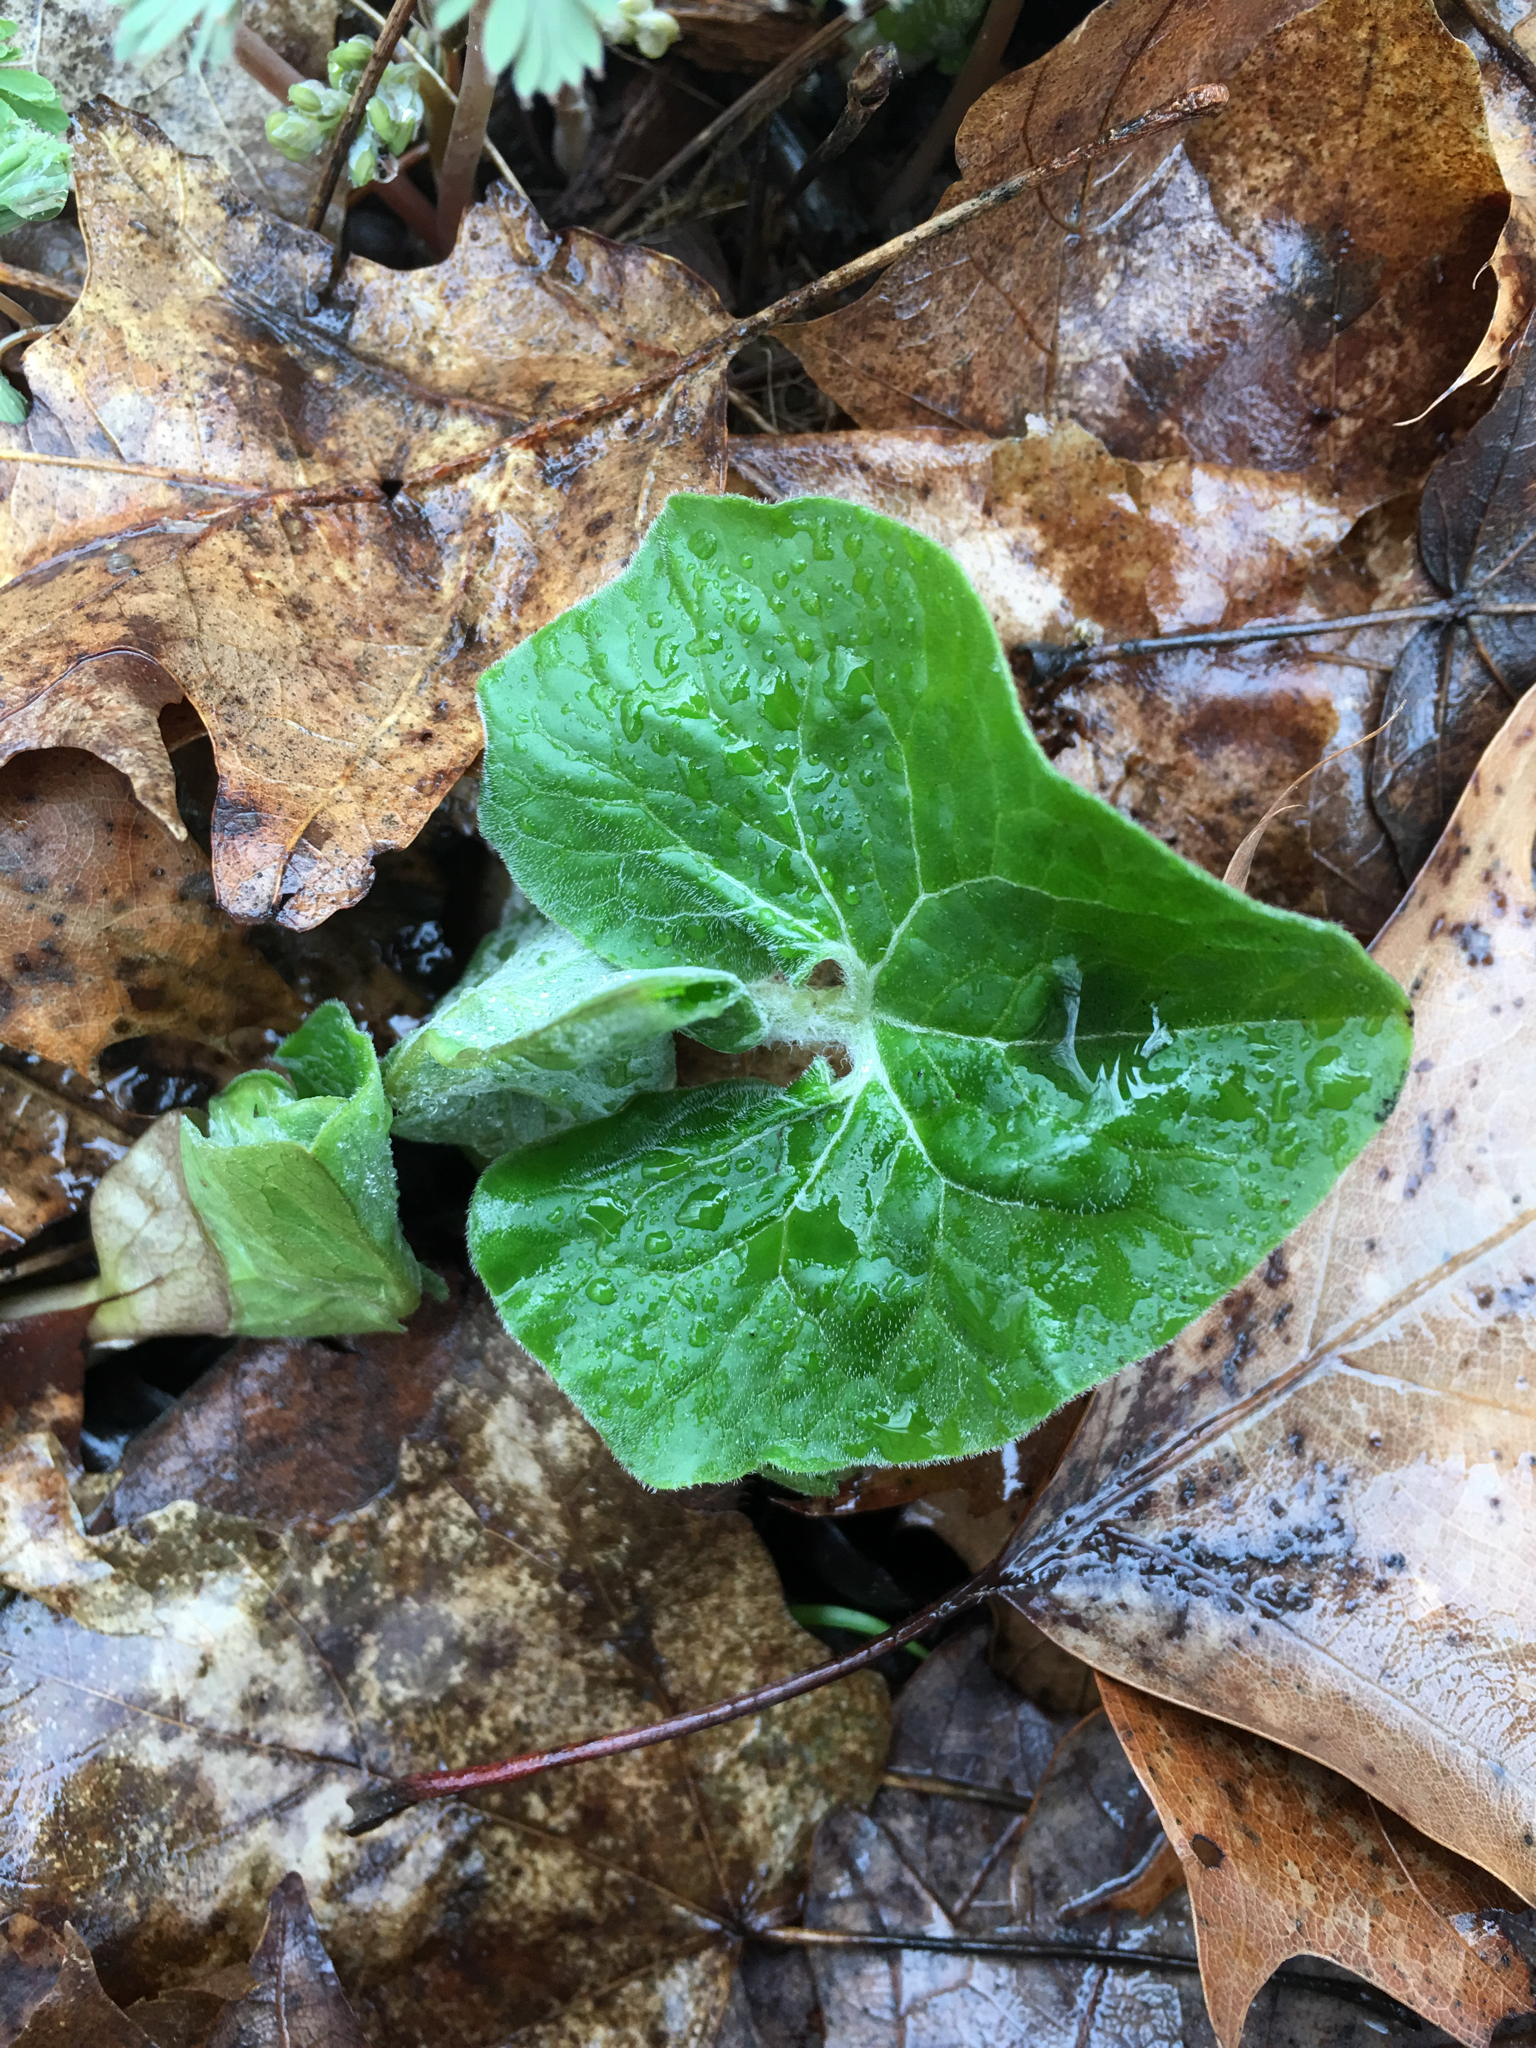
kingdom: Plantae
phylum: Tracheophyta
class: Magnoliopsida
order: Piperales
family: Aristolochiaceae
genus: Asarum
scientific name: Asarum canadense
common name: Wild ginger
